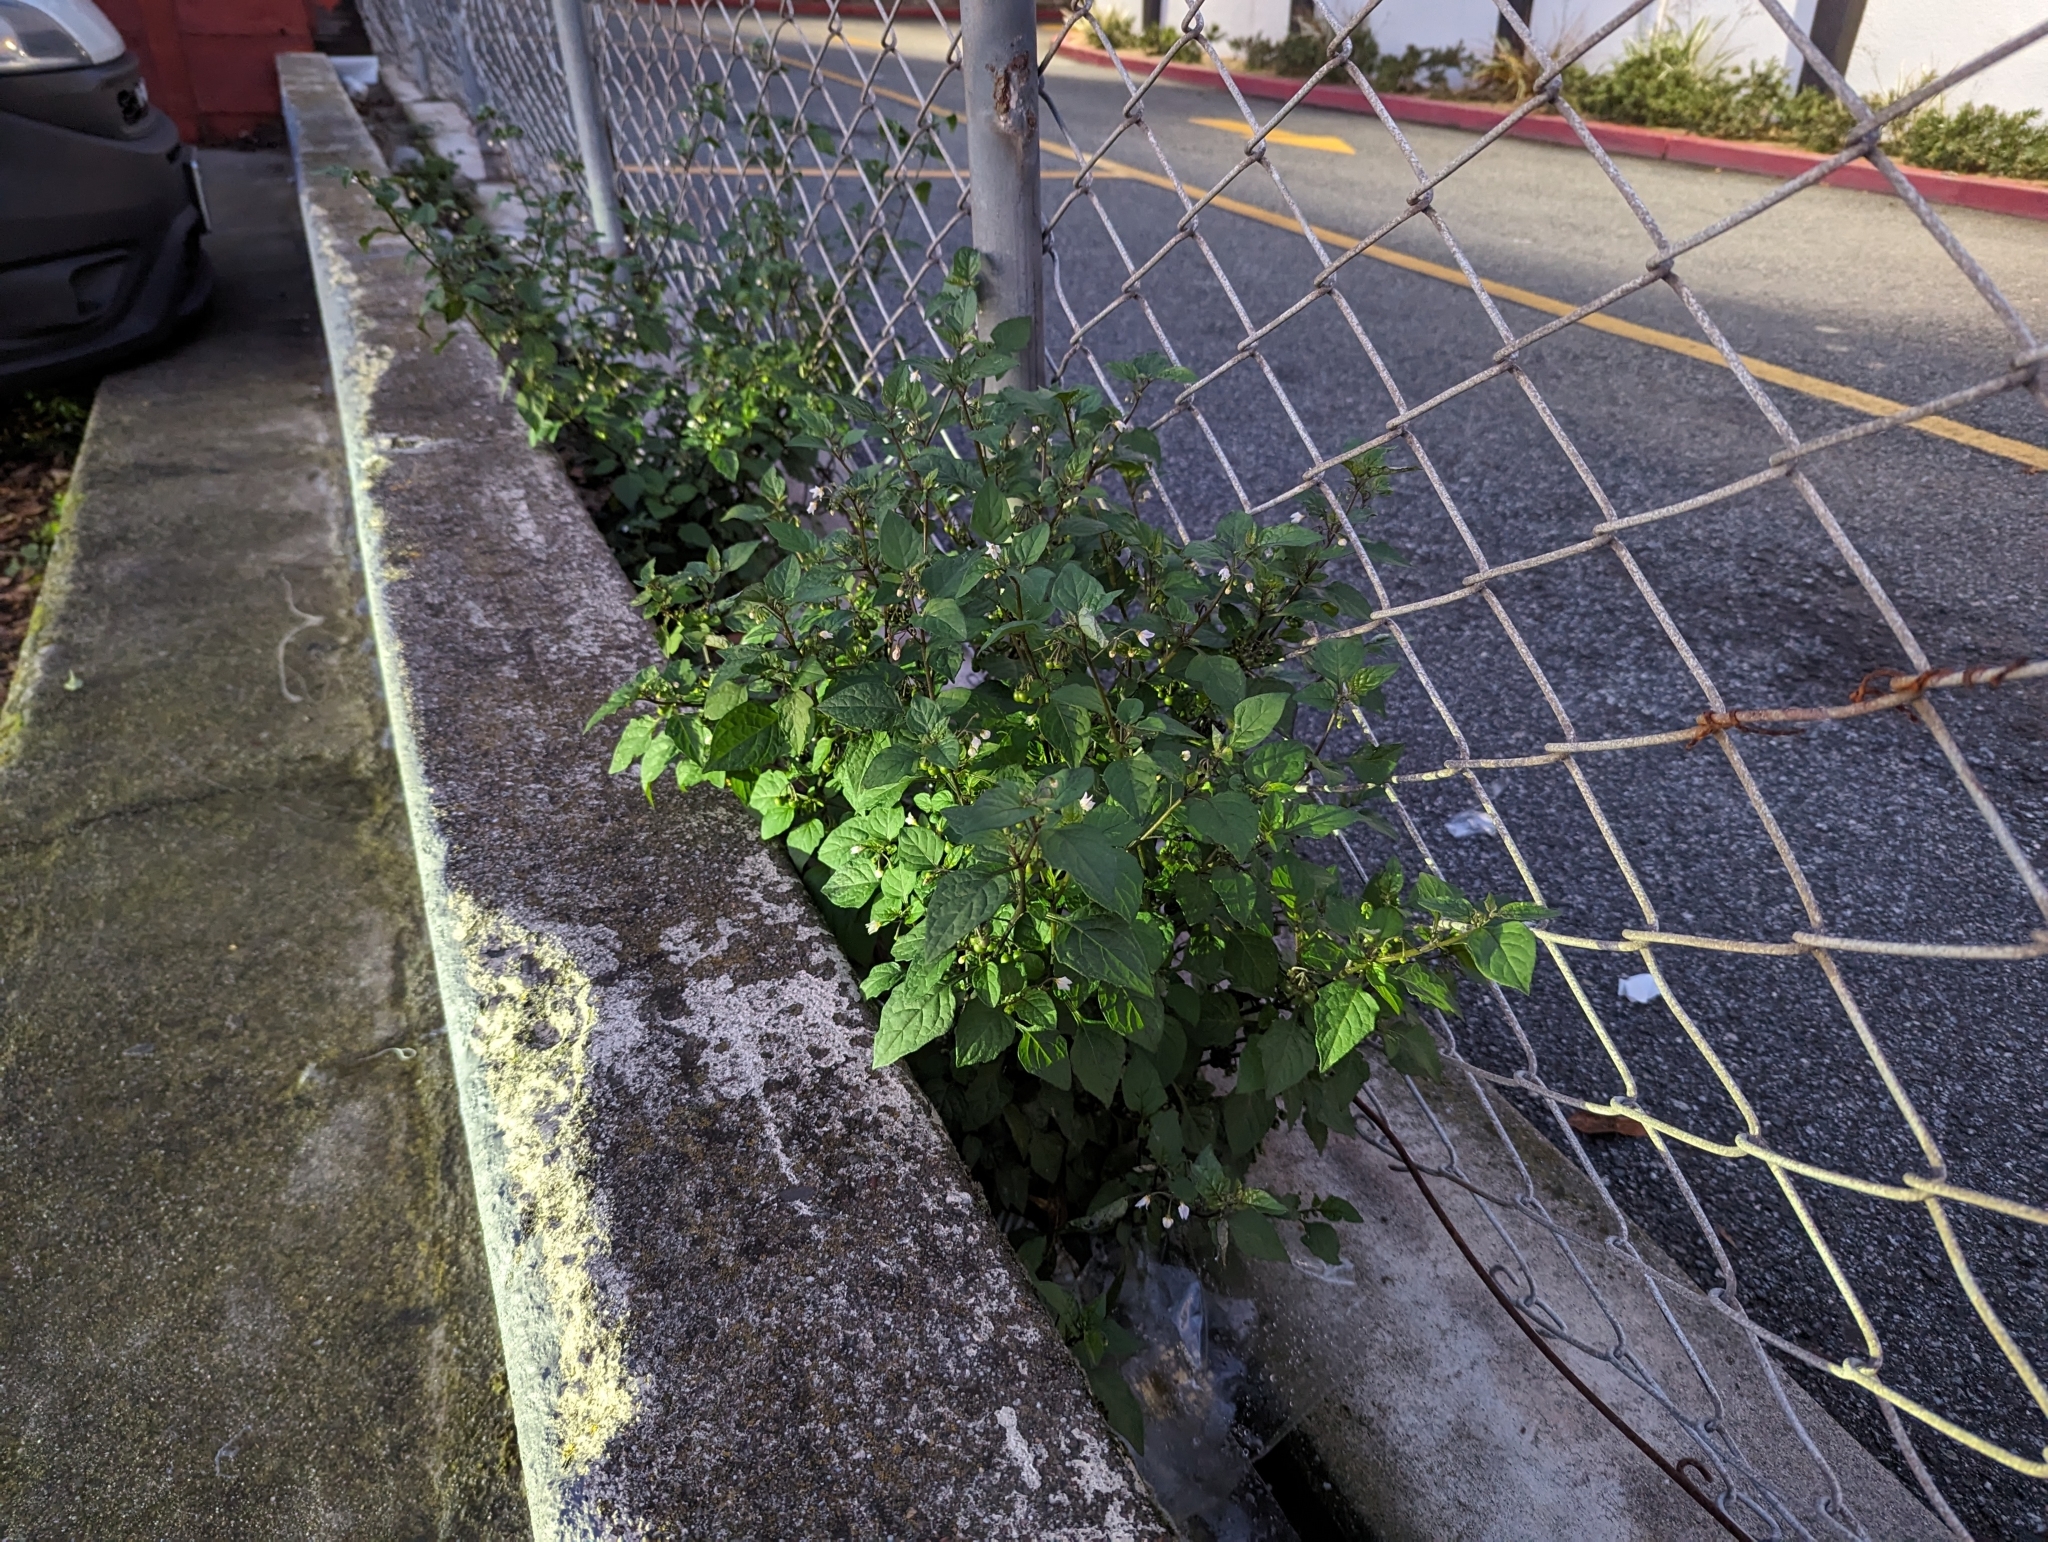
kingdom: Plantae
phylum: Tracheophyta
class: Magnoliopsida
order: Solanales
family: Solanaceae
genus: Solanum
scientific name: Solanum nigrum
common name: Black nightshade
